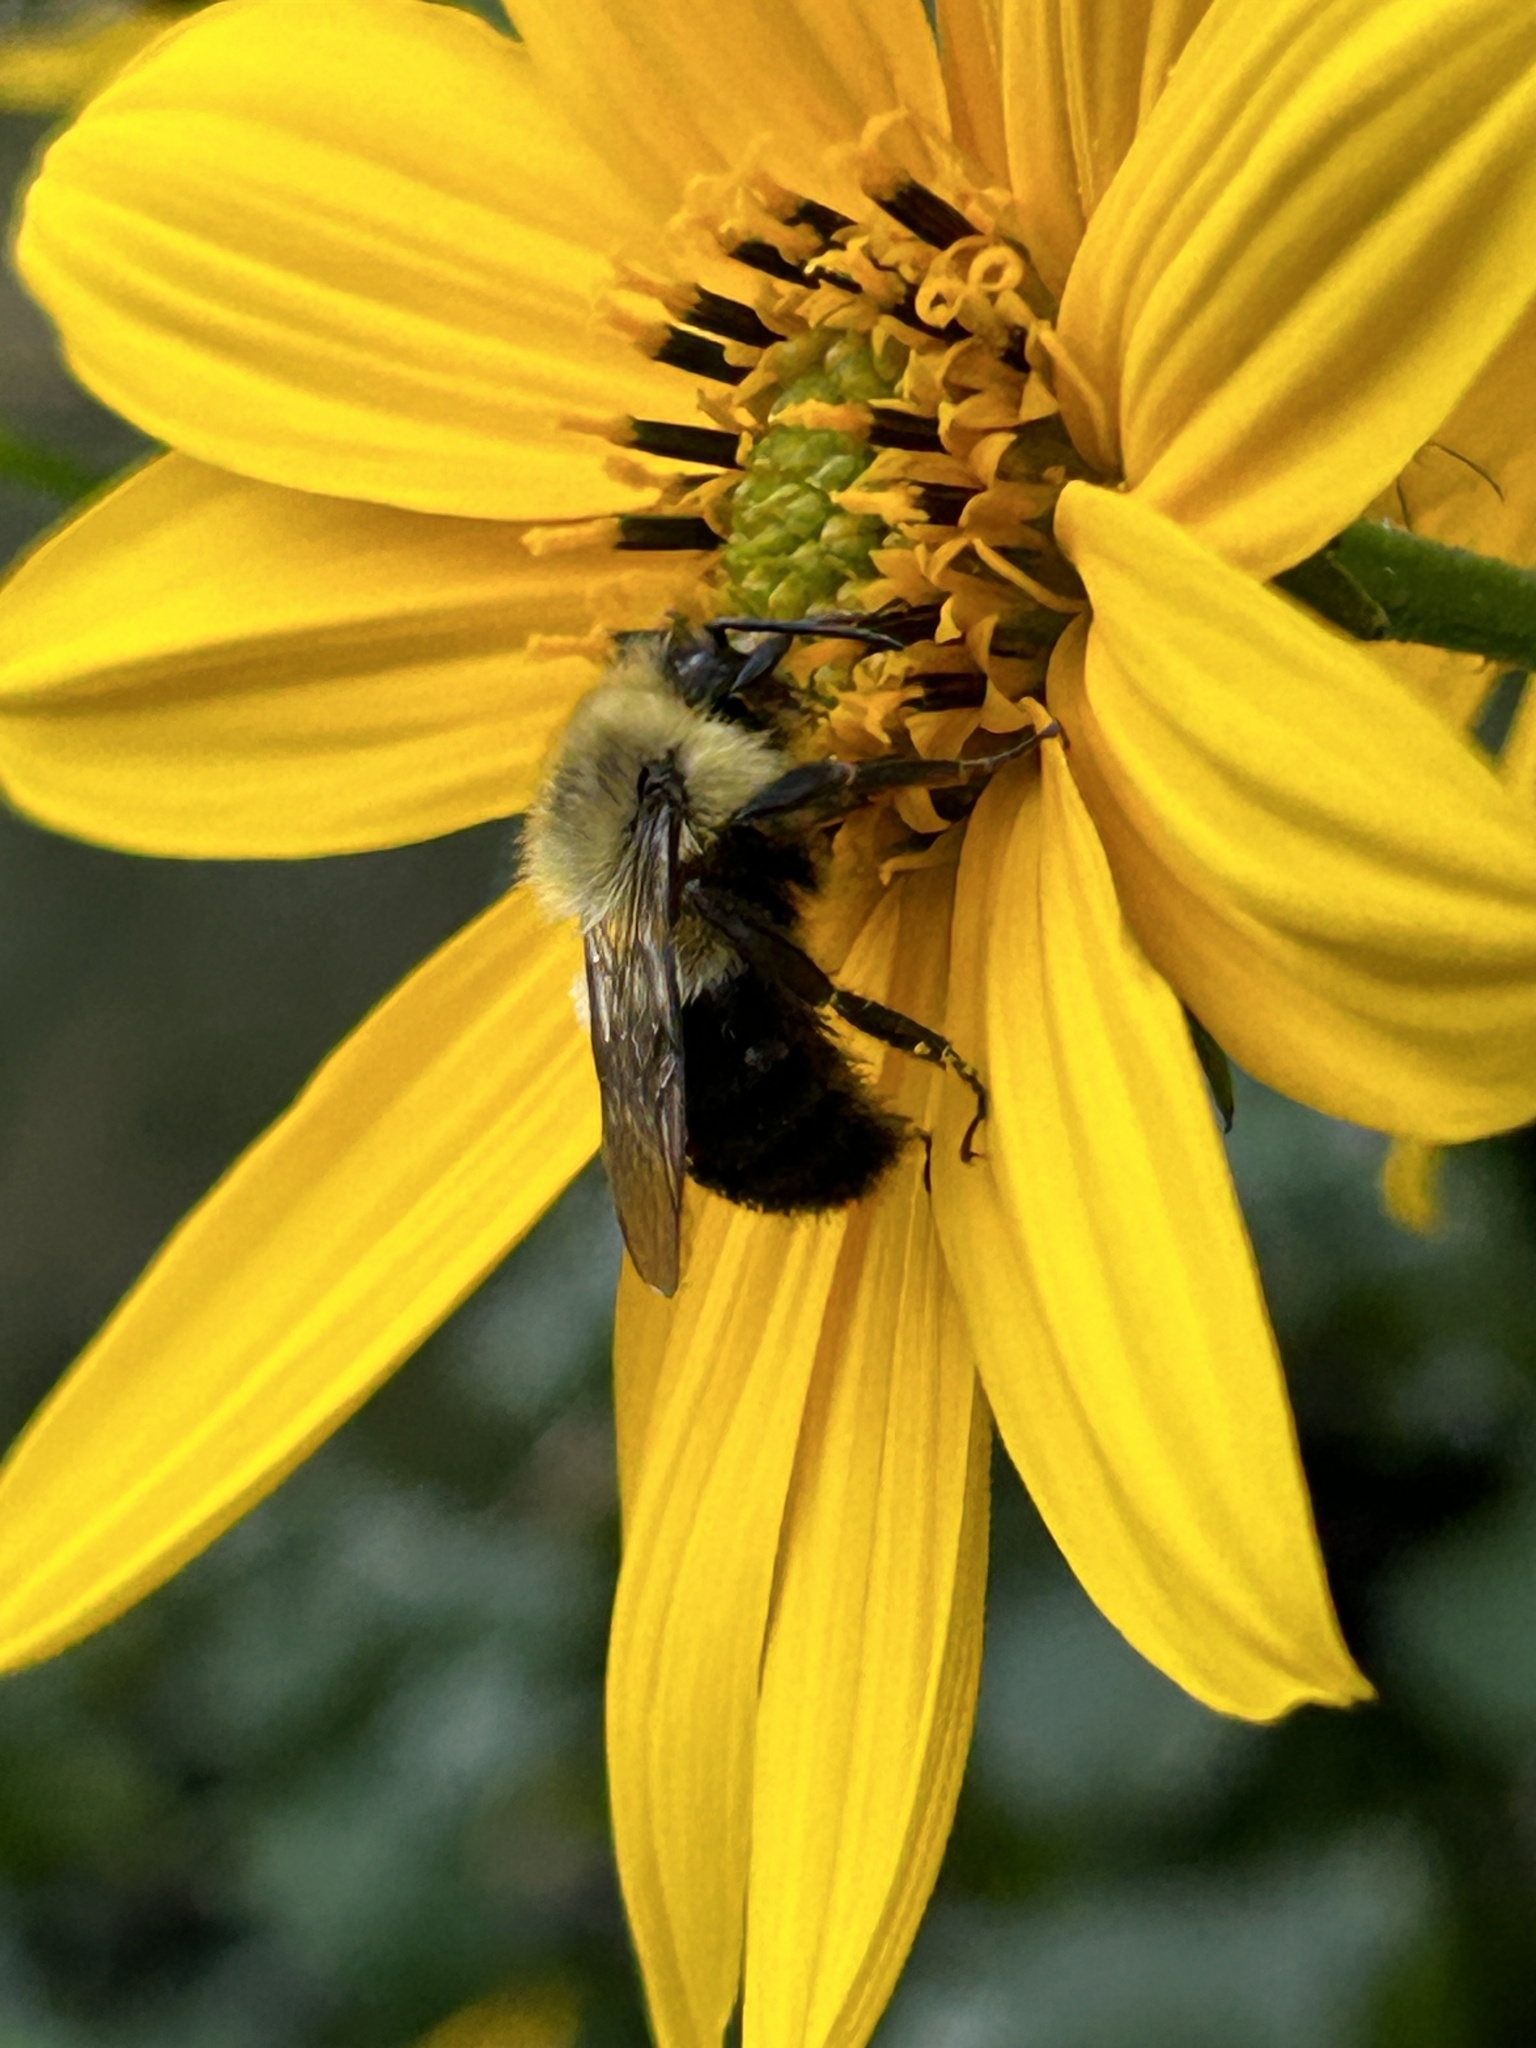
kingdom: Animalia
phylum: Arthropoda
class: Insecta
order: Hymenoptera
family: Apidae
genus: Bombus
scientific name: Bombus impatiens
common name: Common eastern bumble bee
